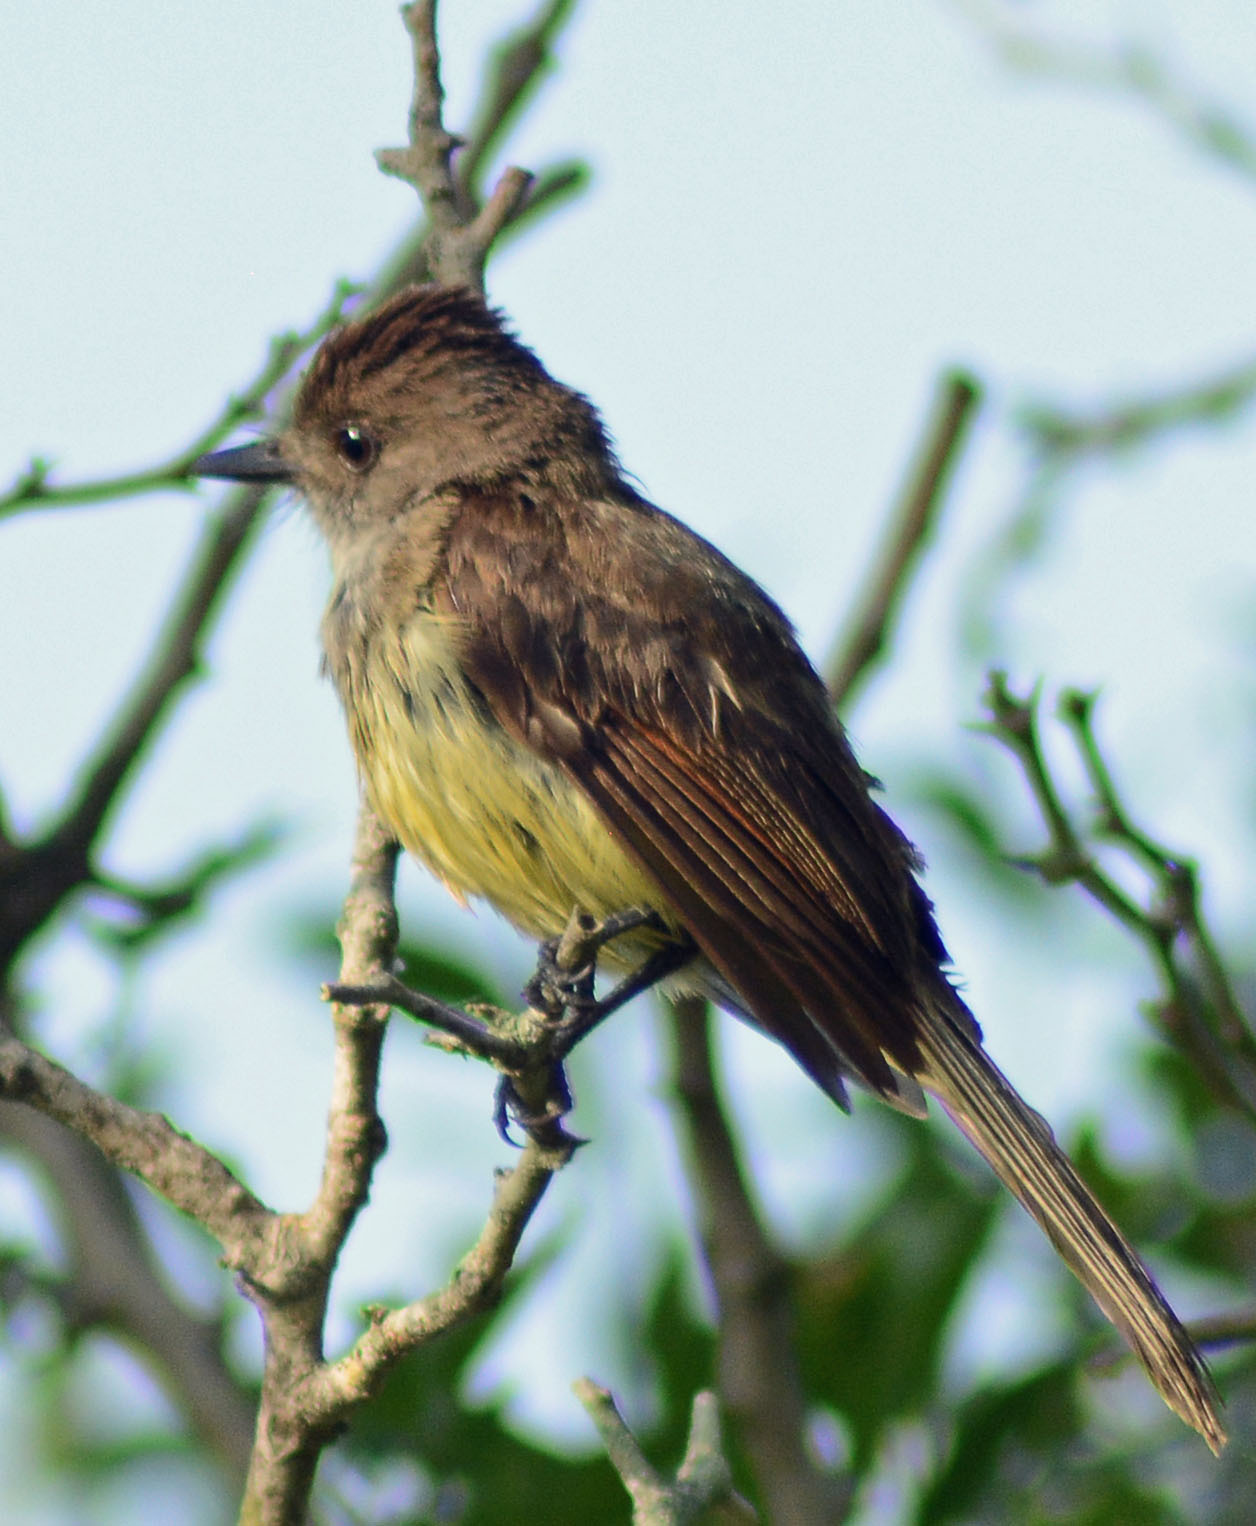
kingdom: Animalia
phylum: Chordata
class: Aves
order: Passeriformes
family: Tyrannidae
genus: Myiarchus
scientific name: Myiarchus tuberculifer
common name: Dusky-capped flycatcher
